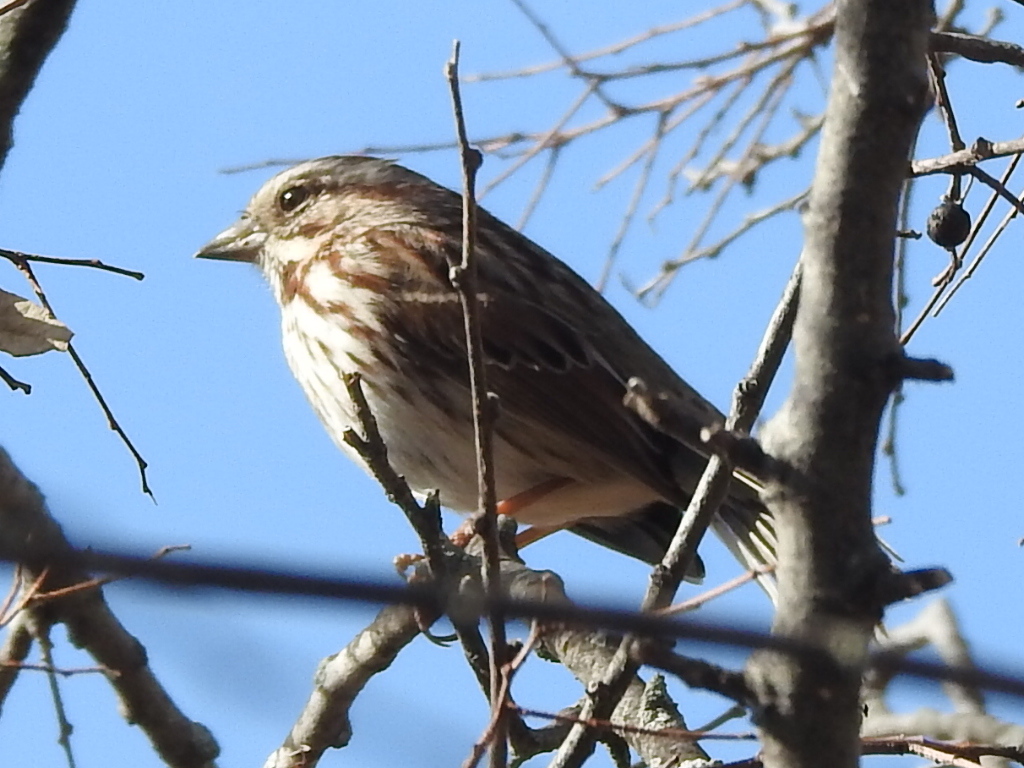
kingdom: Animalia
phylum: Chordata
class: Aves
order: Passeriformes
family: Passerellidae
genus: Melospiza
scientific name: Melospiza melodia
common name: Song sparrow
